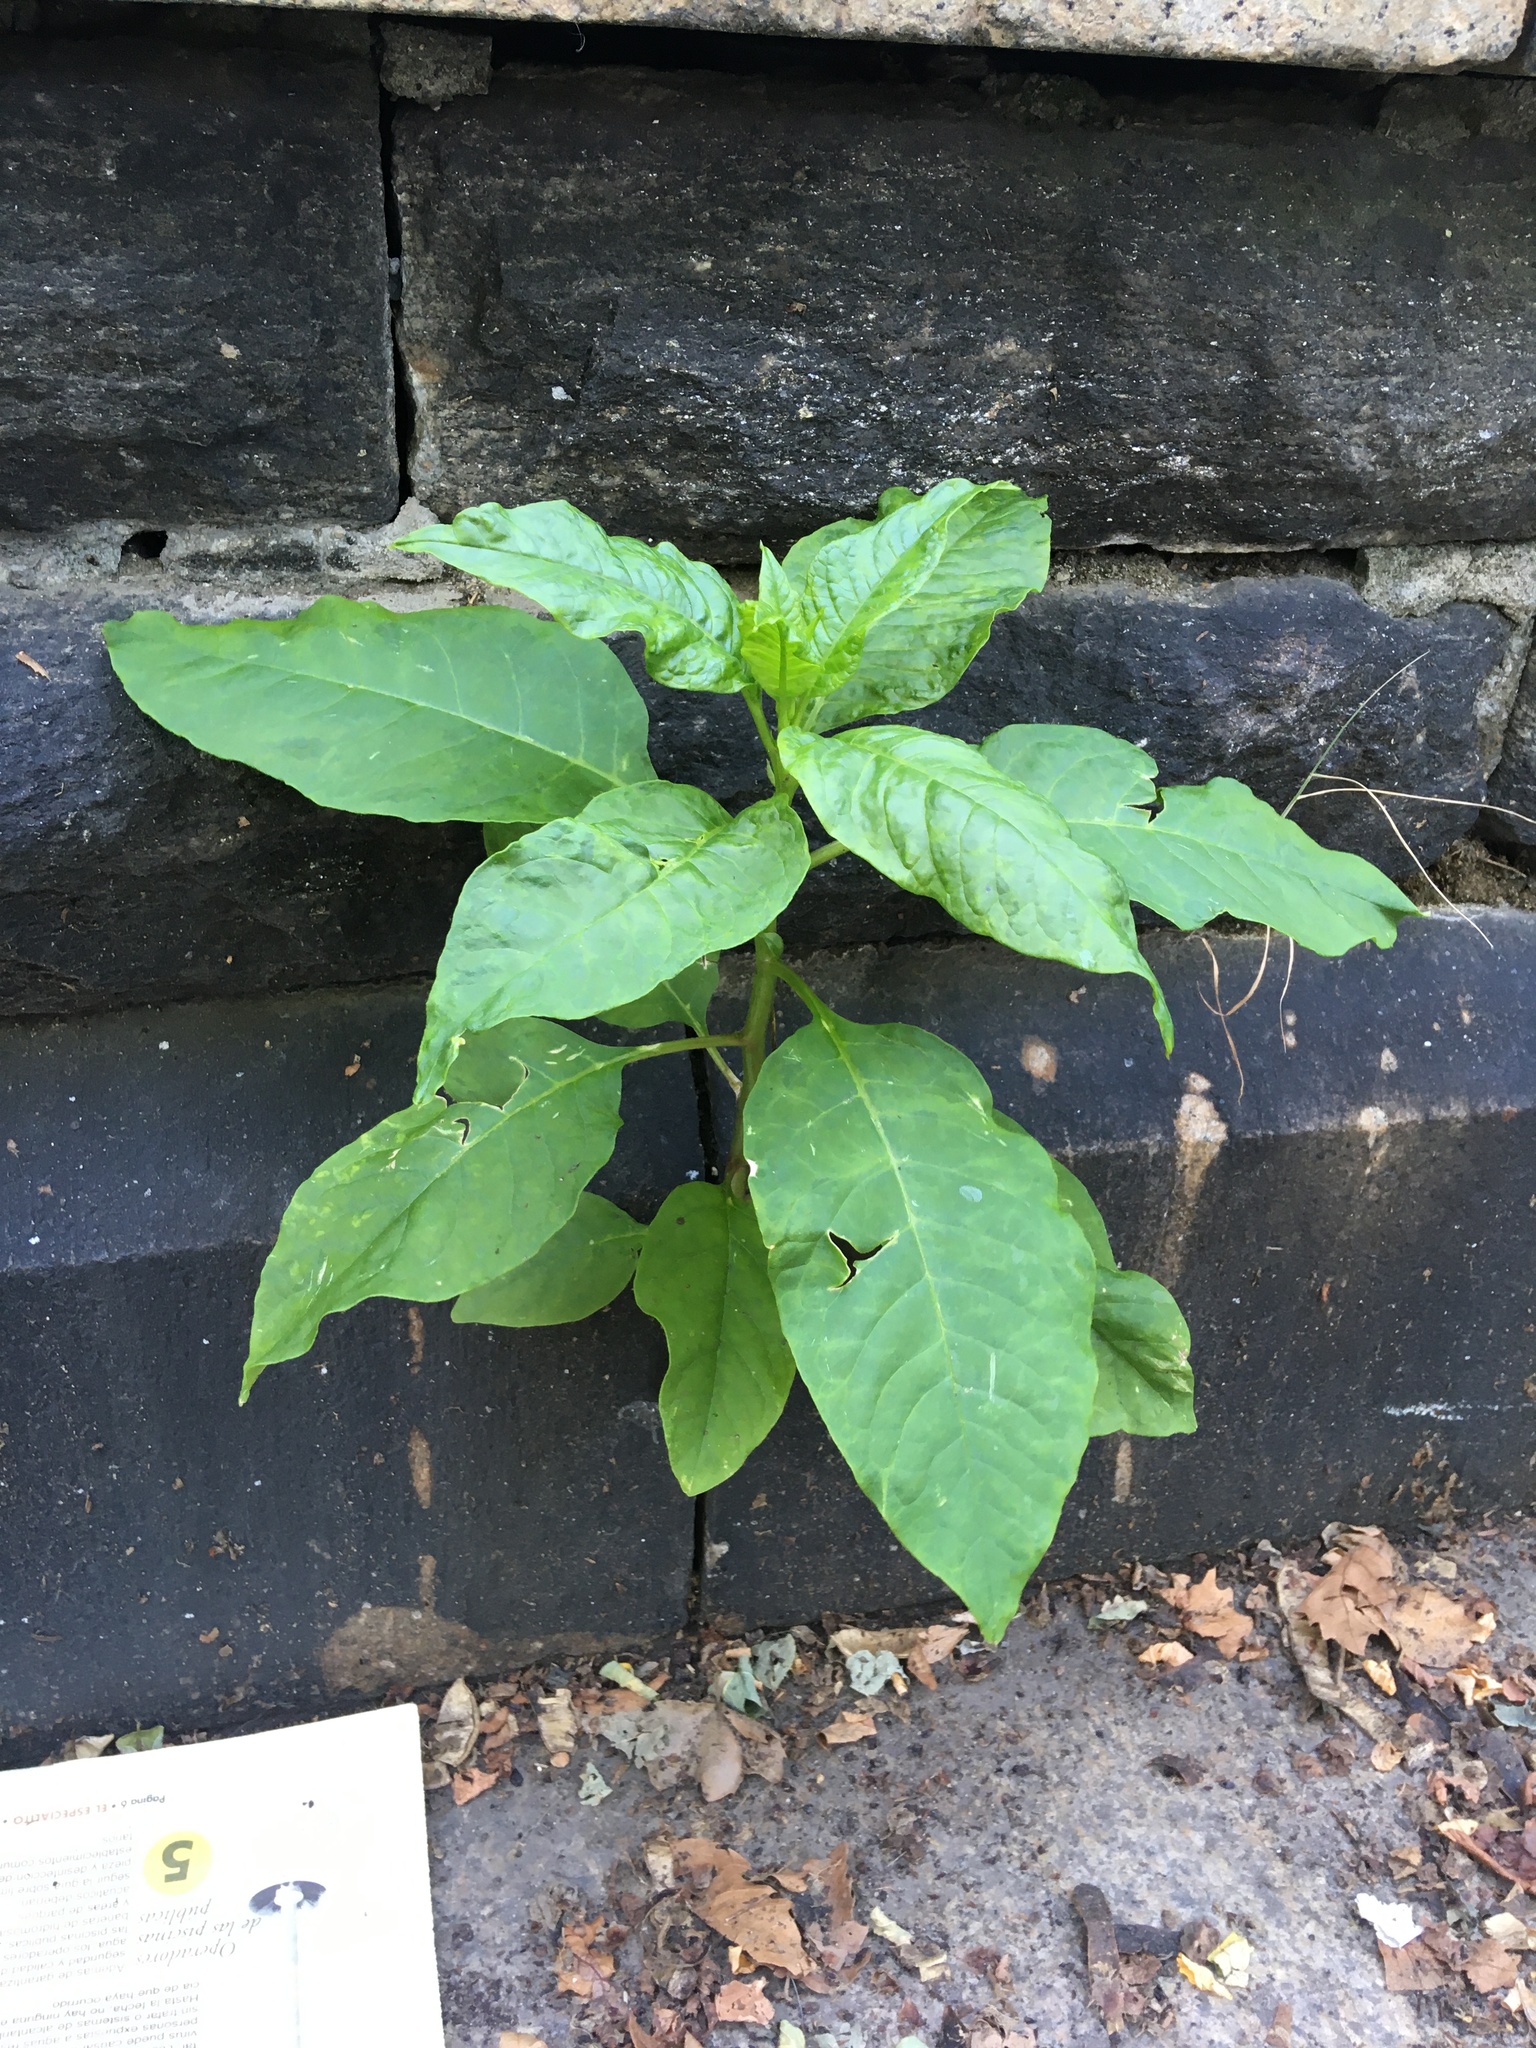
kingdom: Plantae
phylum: Tracheophyta
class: Magnoliopsida
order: Caryophyllales
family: Phytolaccaceae
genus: Phytolacca
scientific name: Phytolacca americana
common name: American pokeweed
